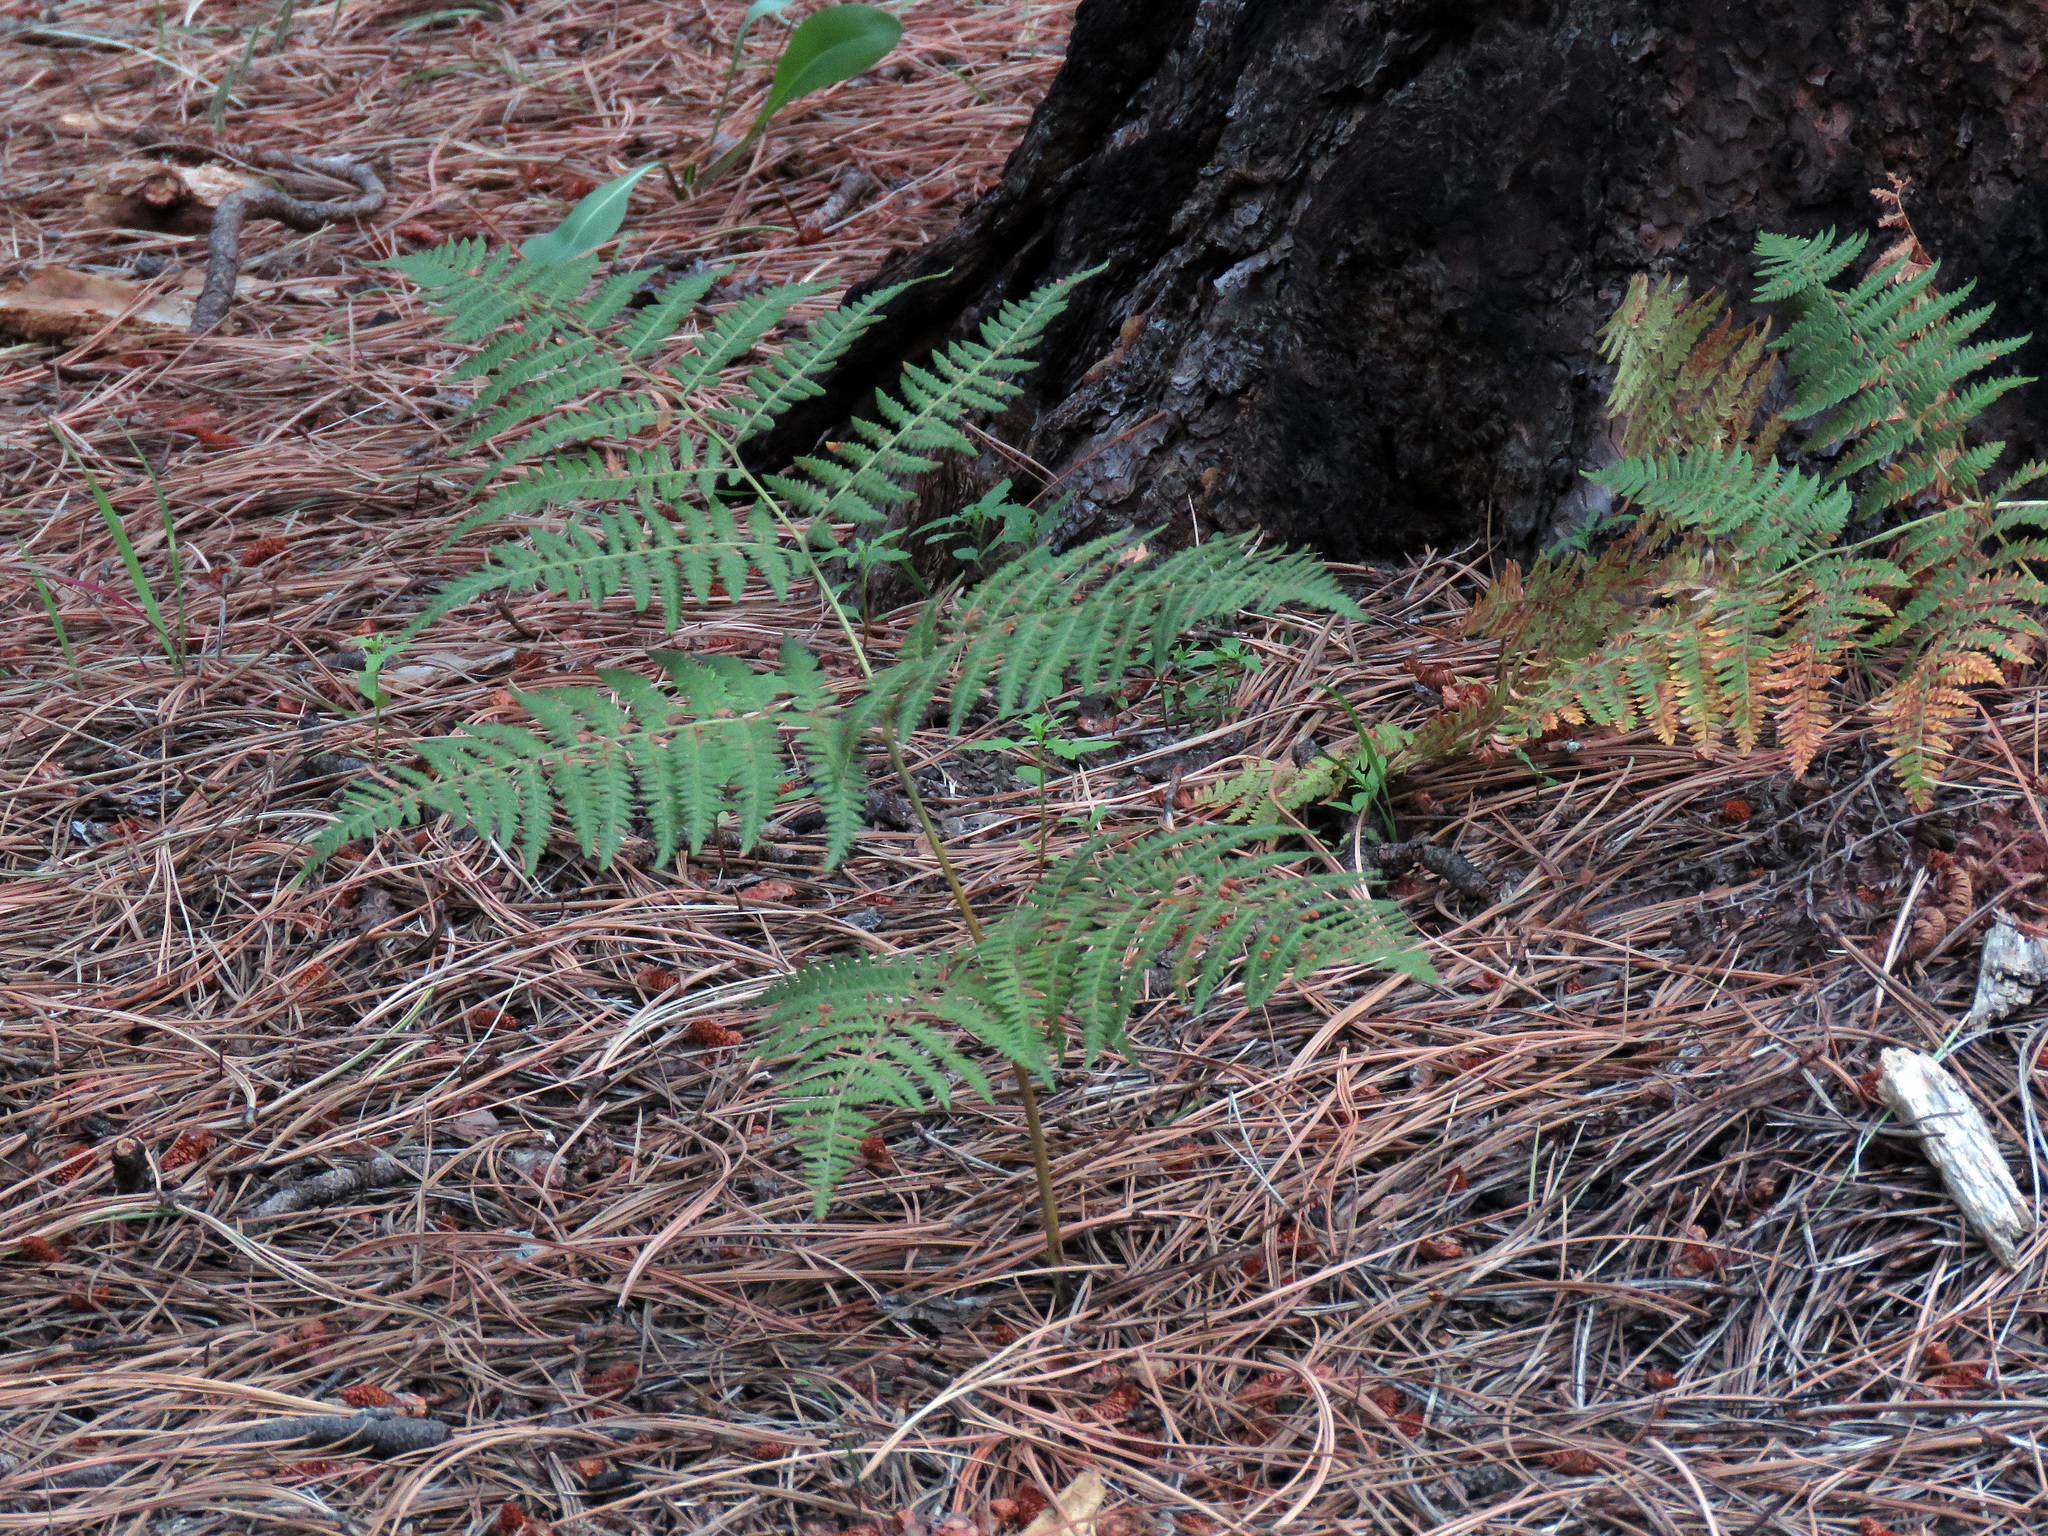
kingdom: Plantae
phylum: Tracheophyta
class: Polypodiopsida
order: Polypodiales
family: Dennstaedtiaceae
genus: Pteridium
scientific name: Pteridium aquilinum
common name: Bracken
